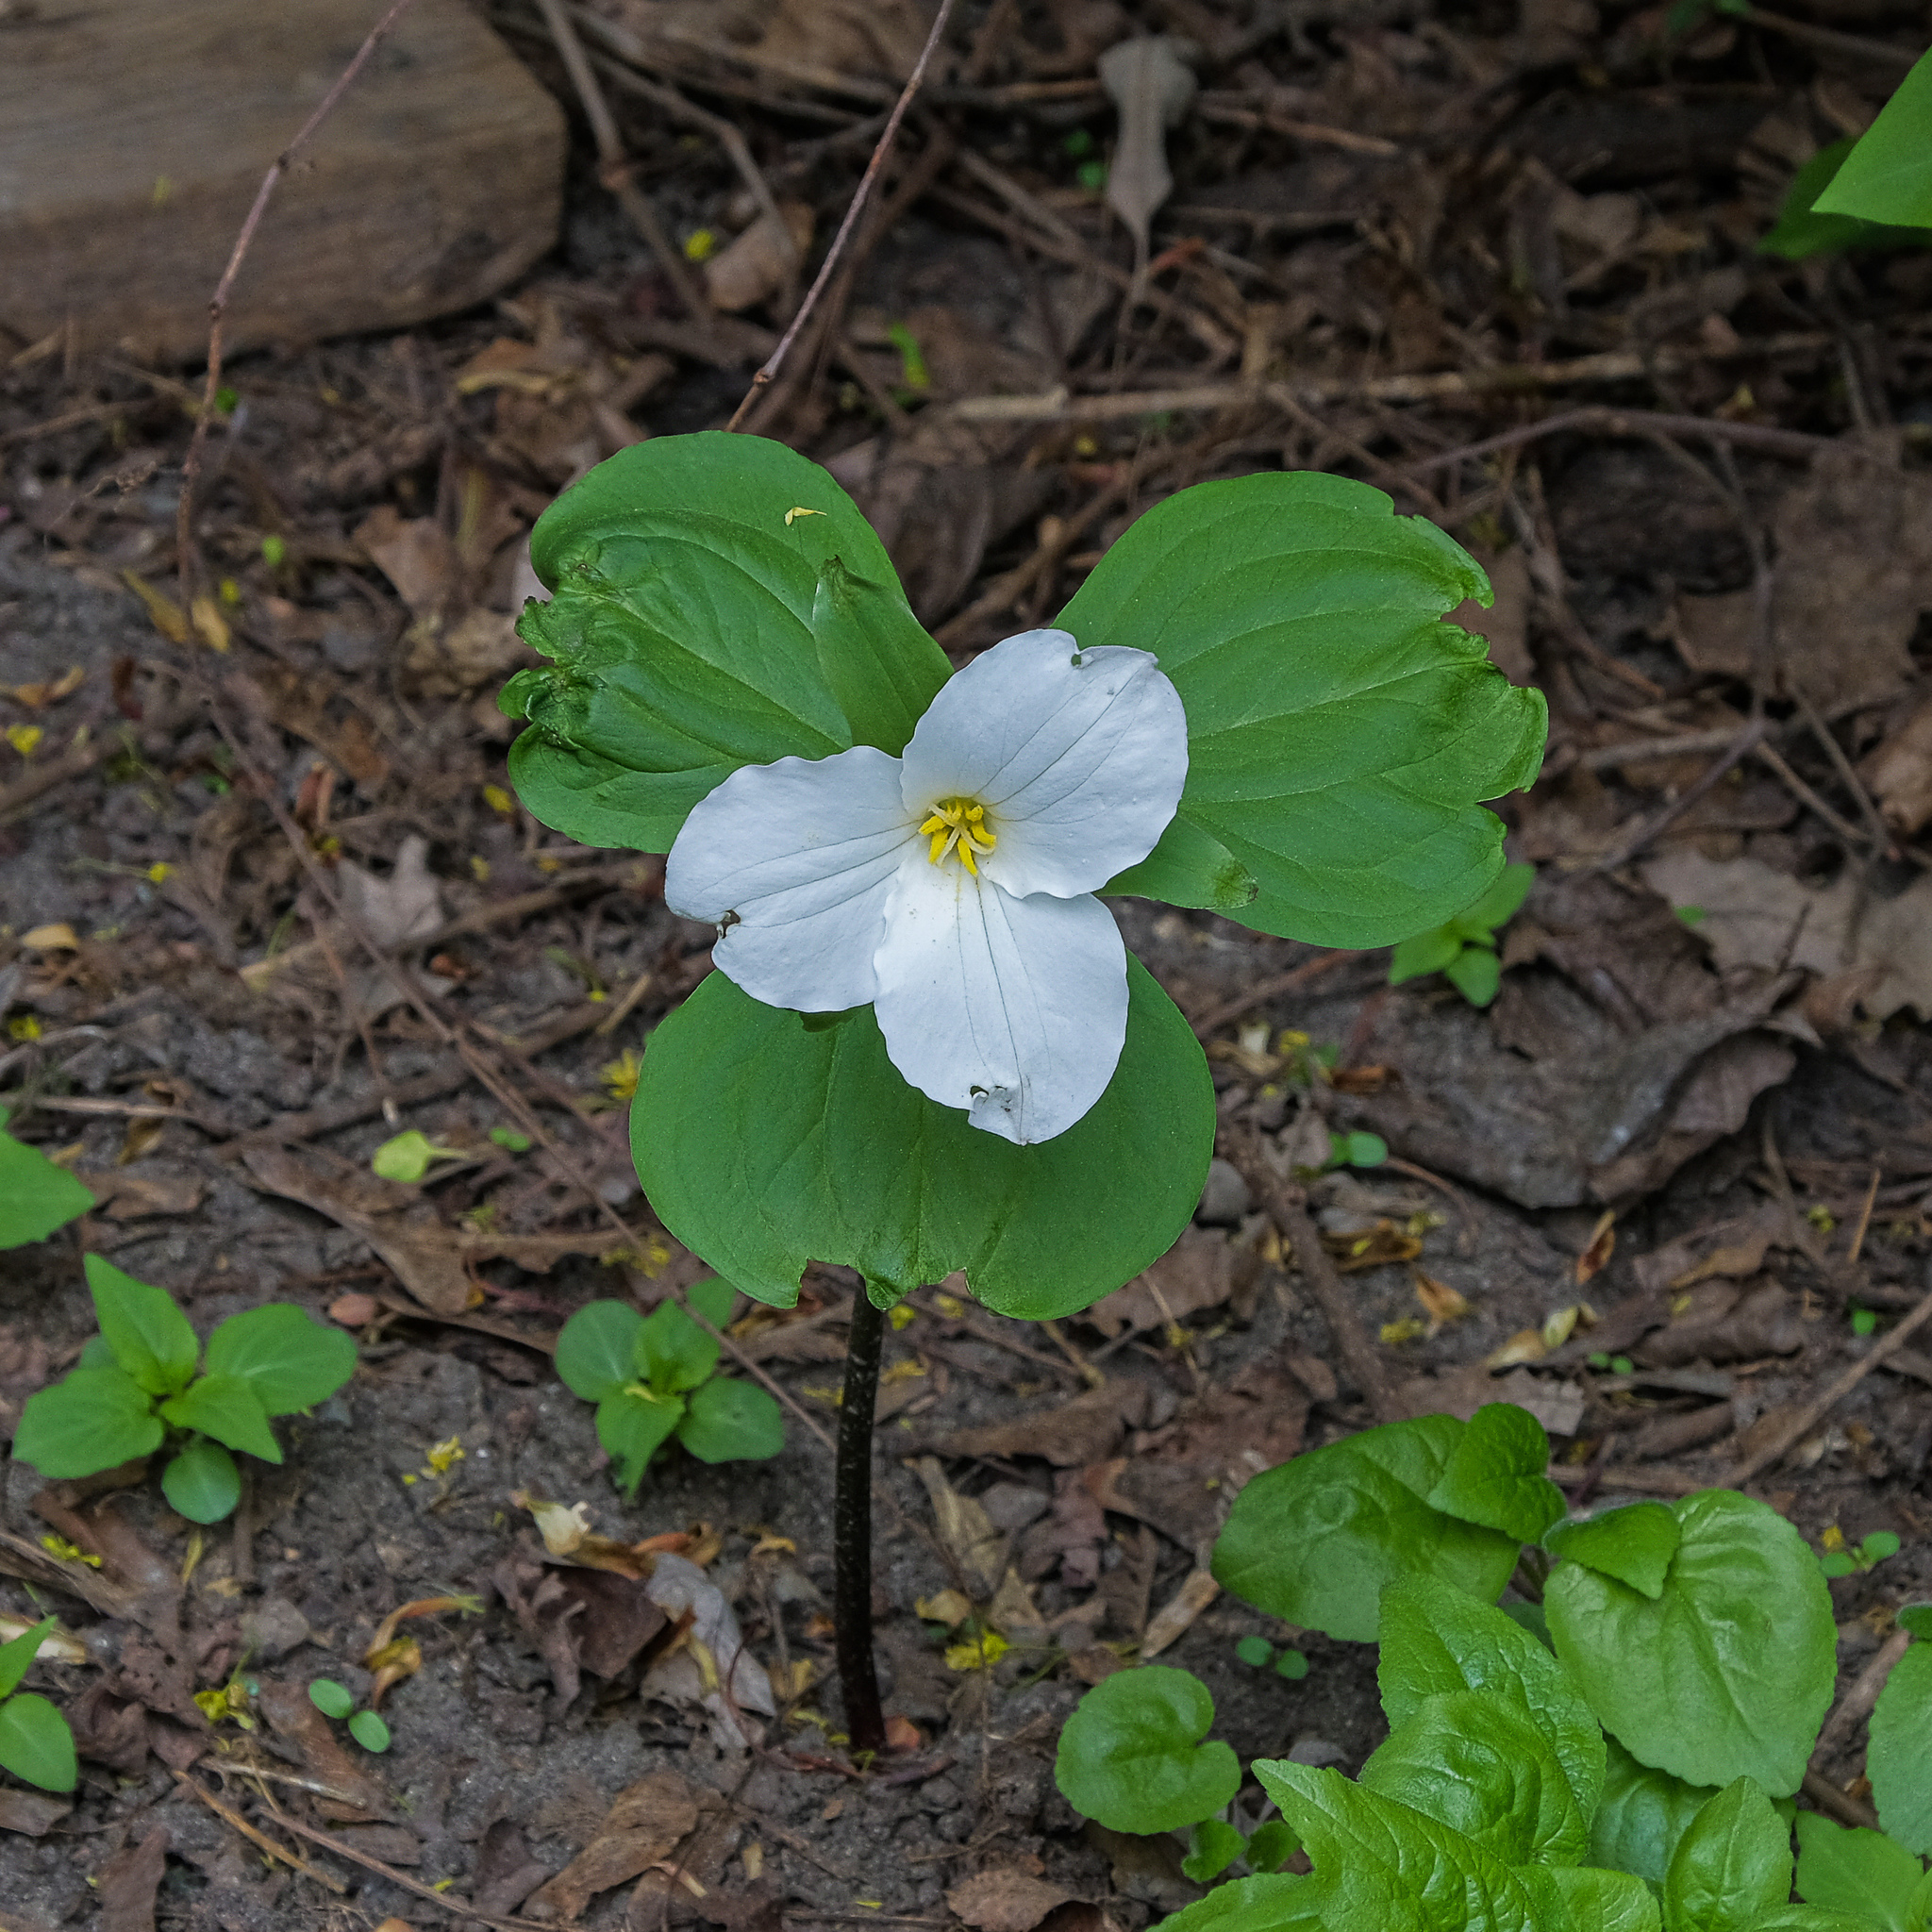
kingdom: Plantae
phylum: Tracheophyta
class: Liliopsida
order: Liliales
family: Melanthiaceae
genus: Trillium
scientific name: Trillium grandiflorum
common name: Great white trillium
